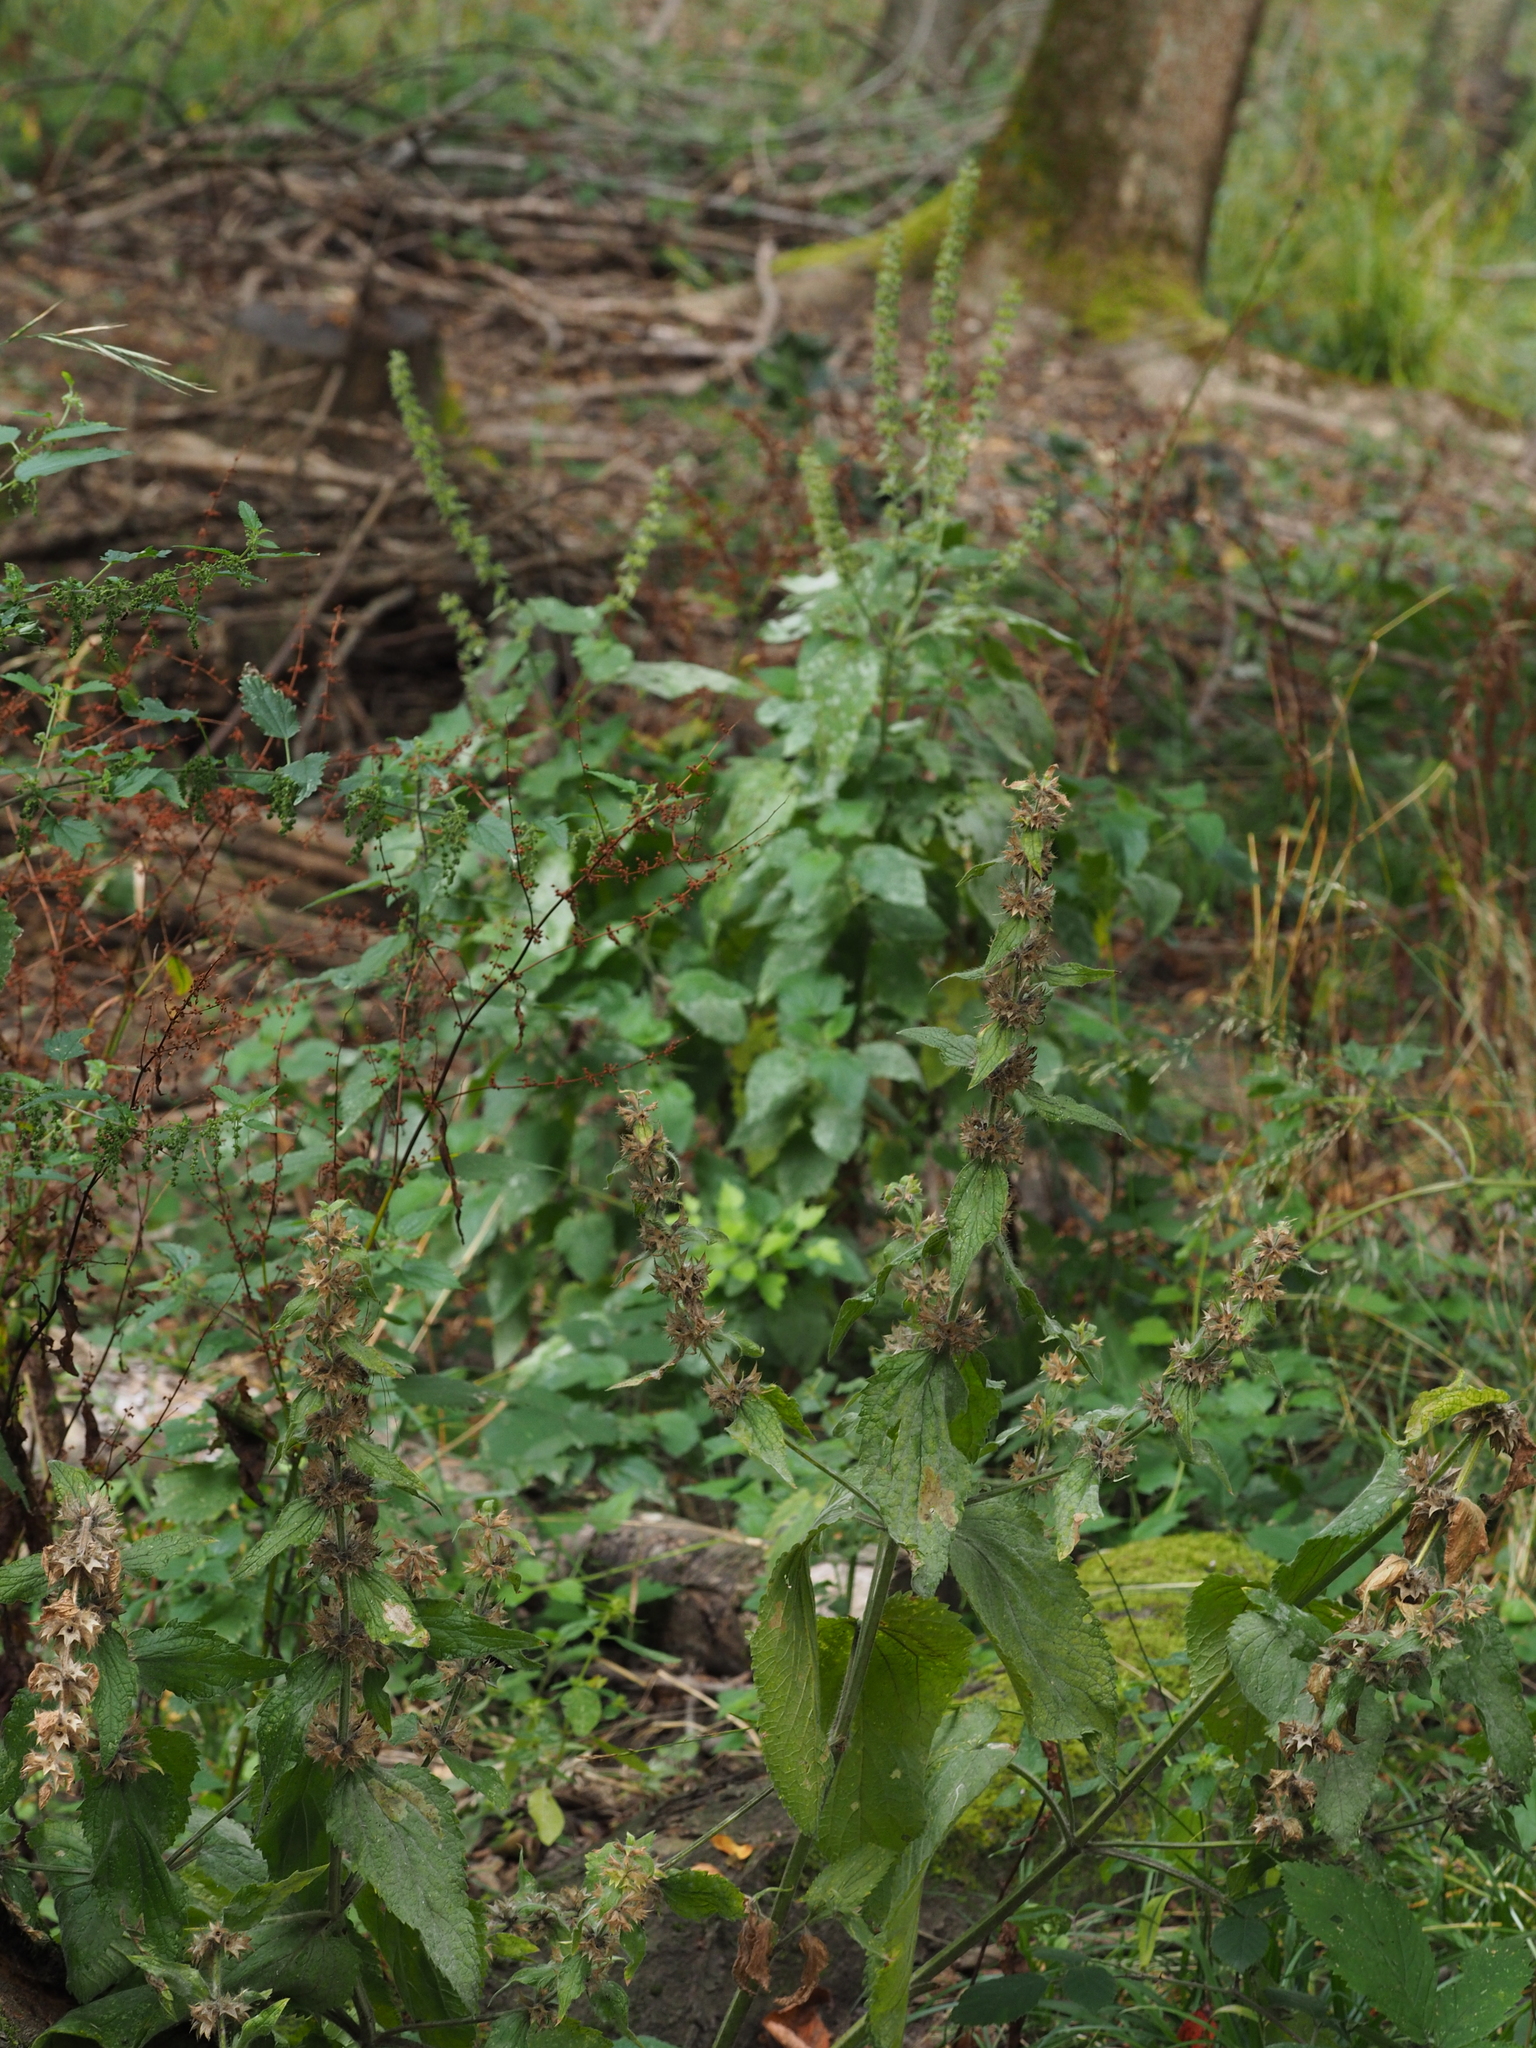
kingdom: Plantae
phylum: Tracheophyta
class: Magnoliopsida
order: Lamiales
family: Lamiaceae
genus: Stachys
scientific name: Stachys alpina
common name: Limestone woundwort
